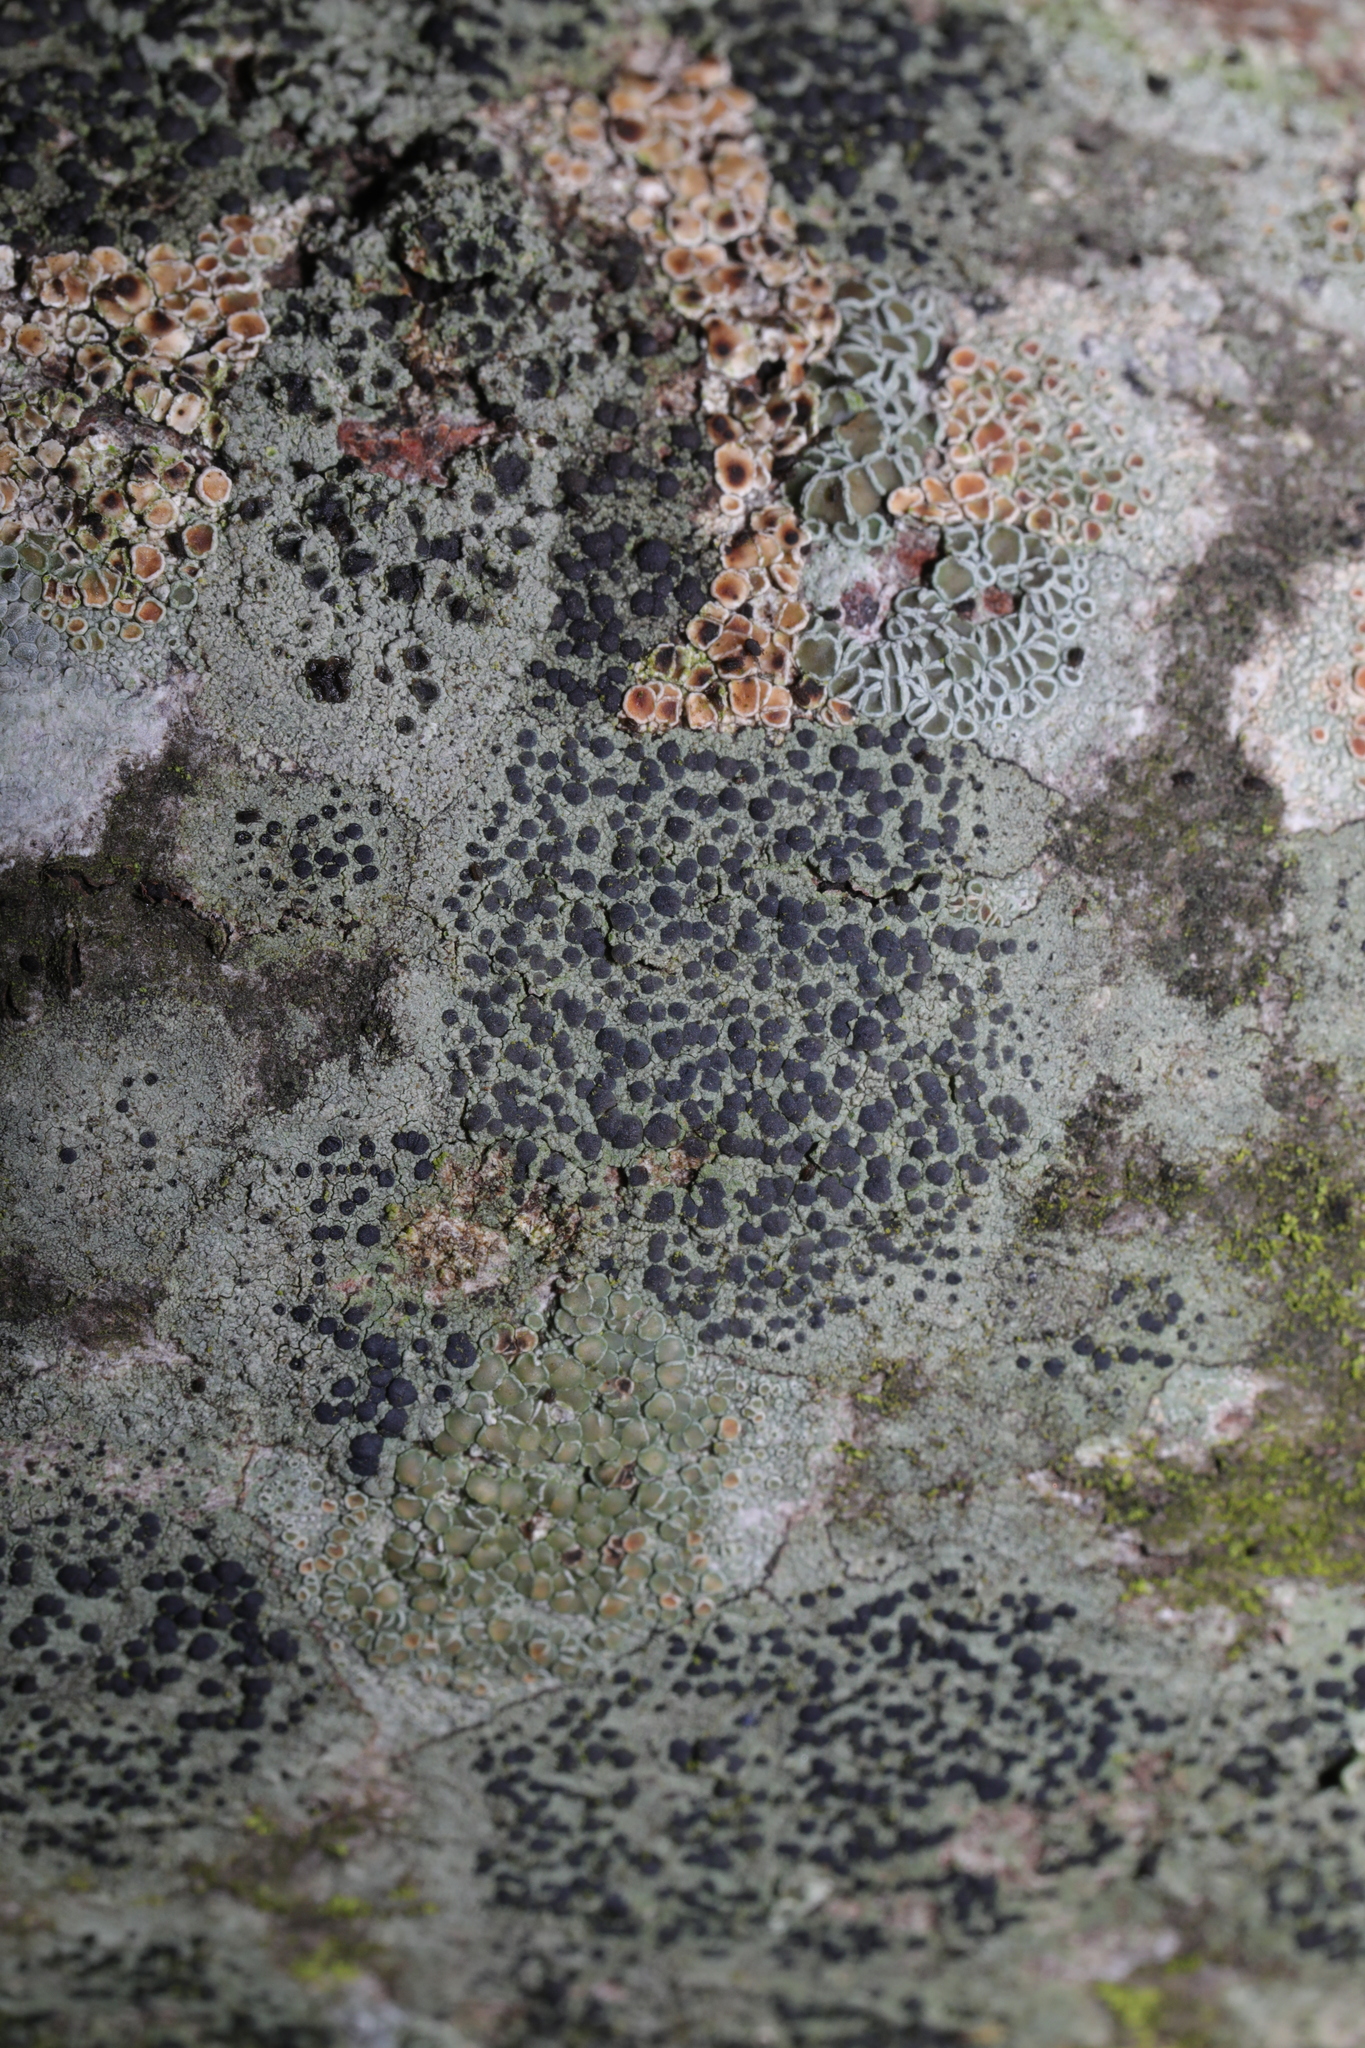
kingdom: Fungi
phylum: Ascomycota
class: Lecanoromycetes
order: Lecanorales
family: Lecanoraceae
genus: Lecidella
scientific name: Lecidella elaeochroma
